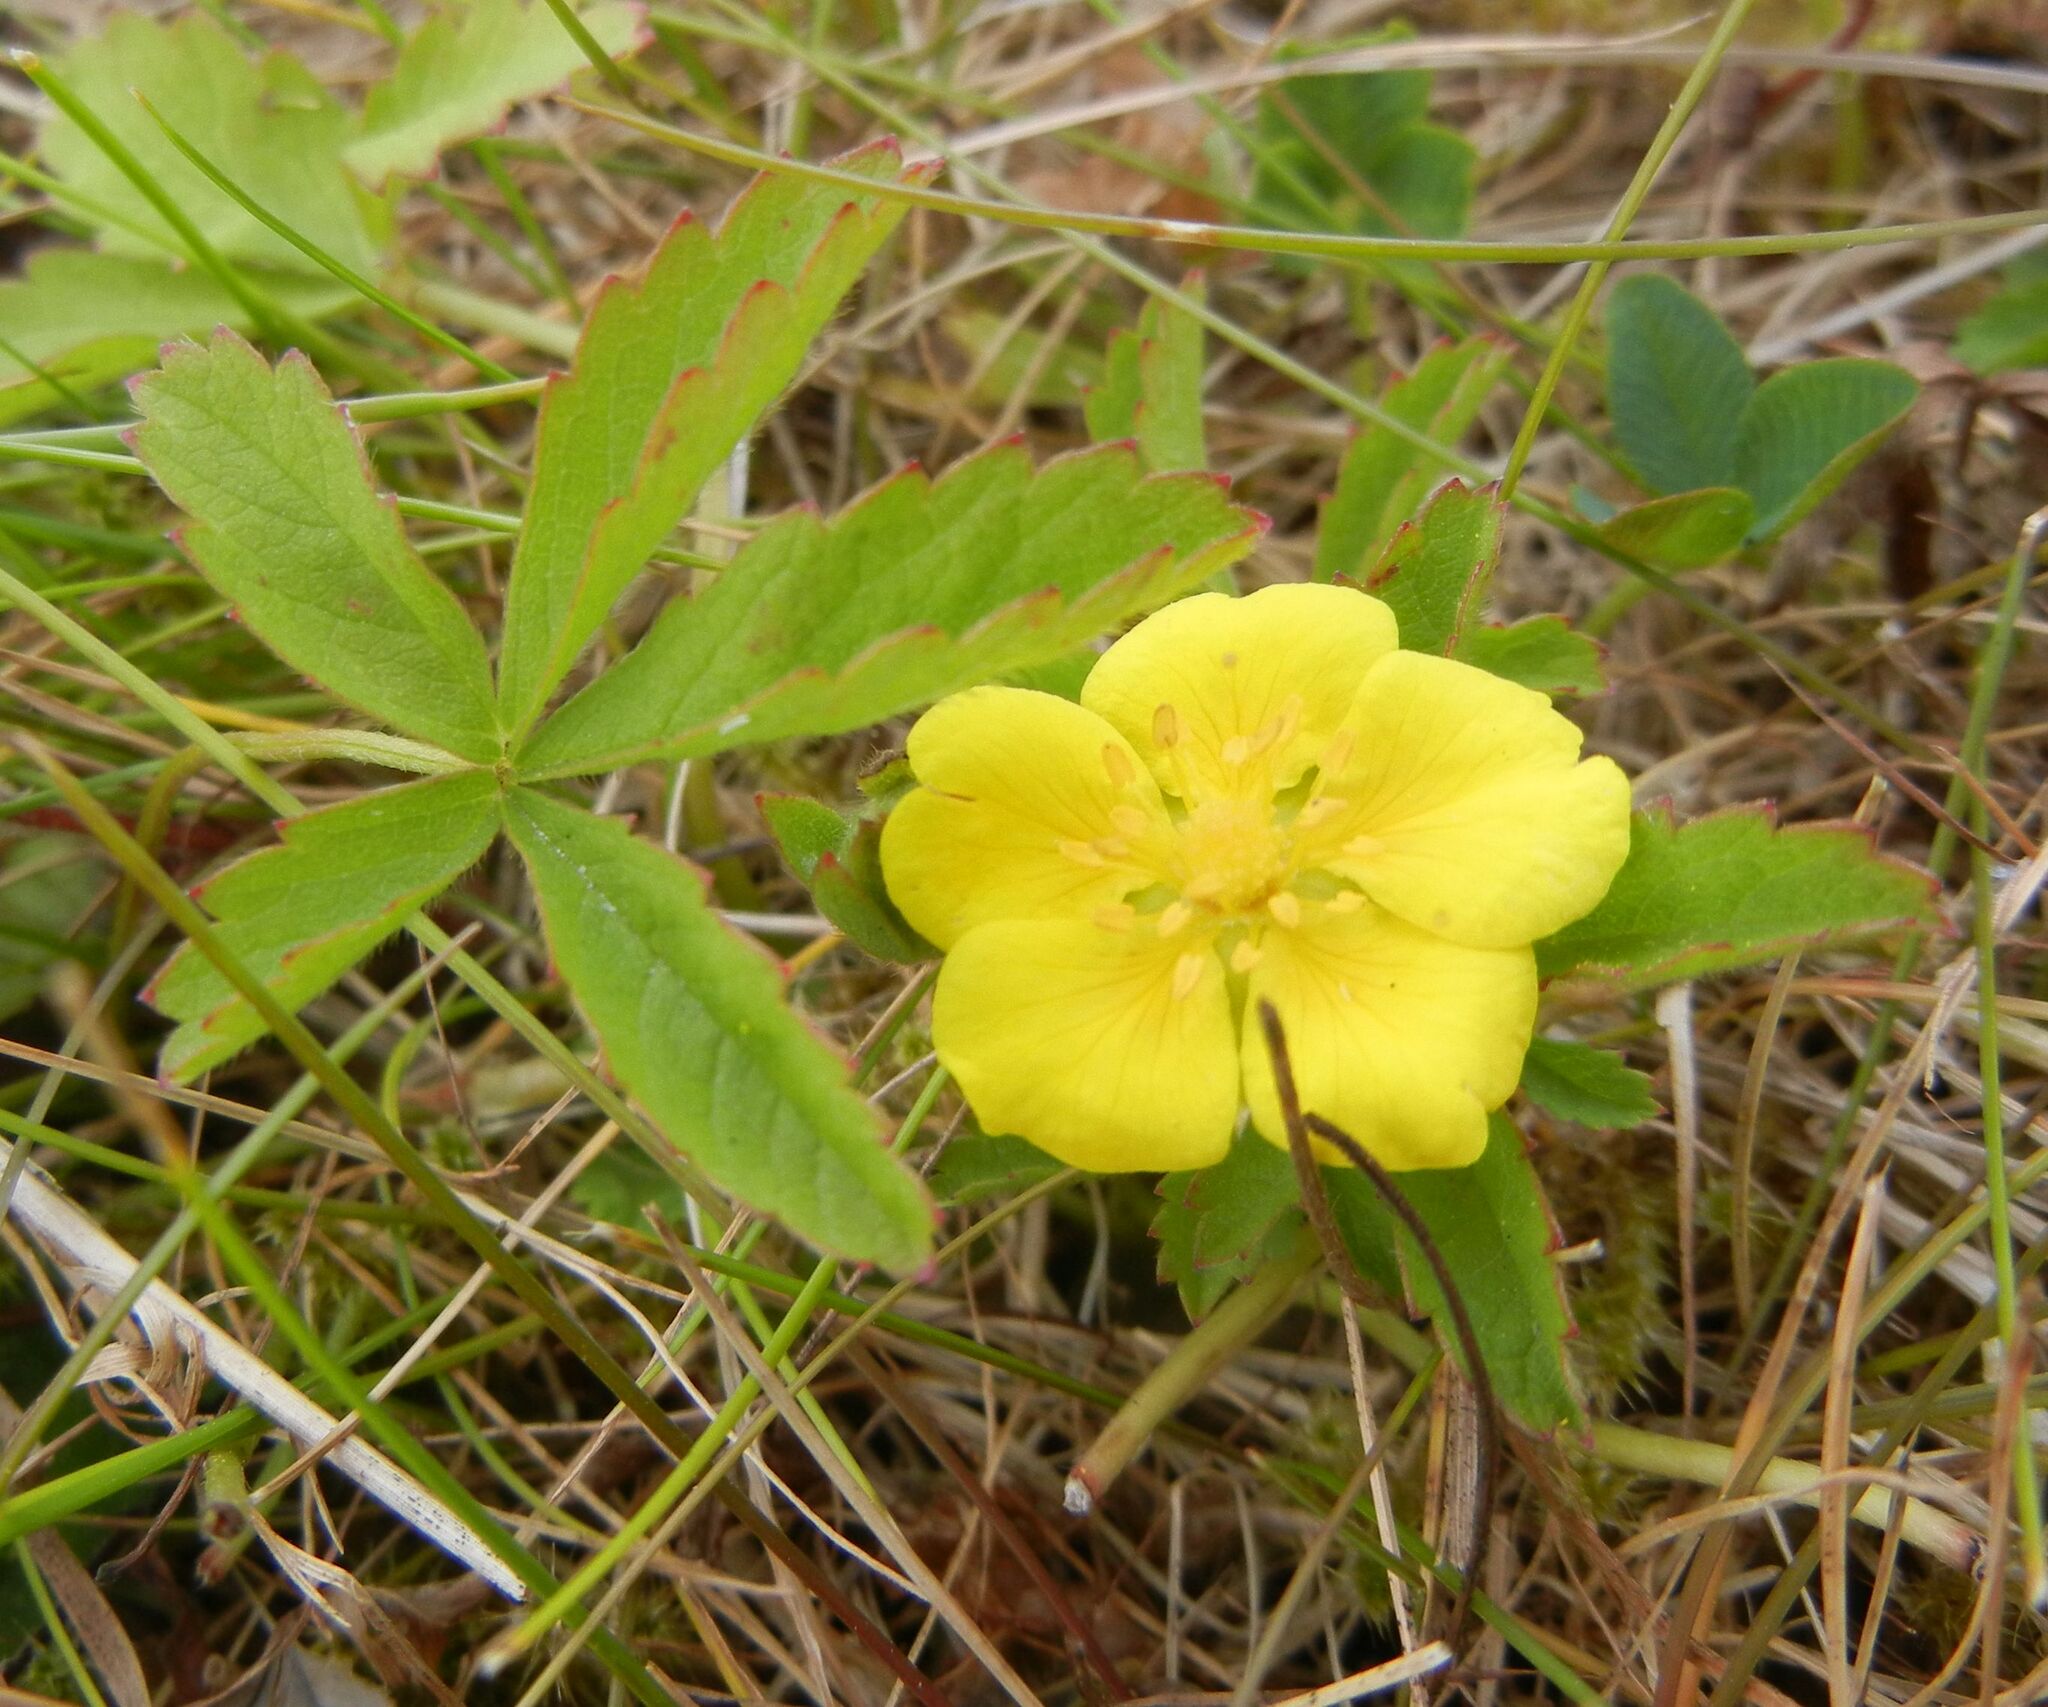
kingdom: Plantae
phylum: Tracheophyta
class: Magnoliopsida
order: Rosales
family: Rosaceae
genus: Potentilla
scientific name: Potentilla reptans
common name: Creeping cinquefoil
